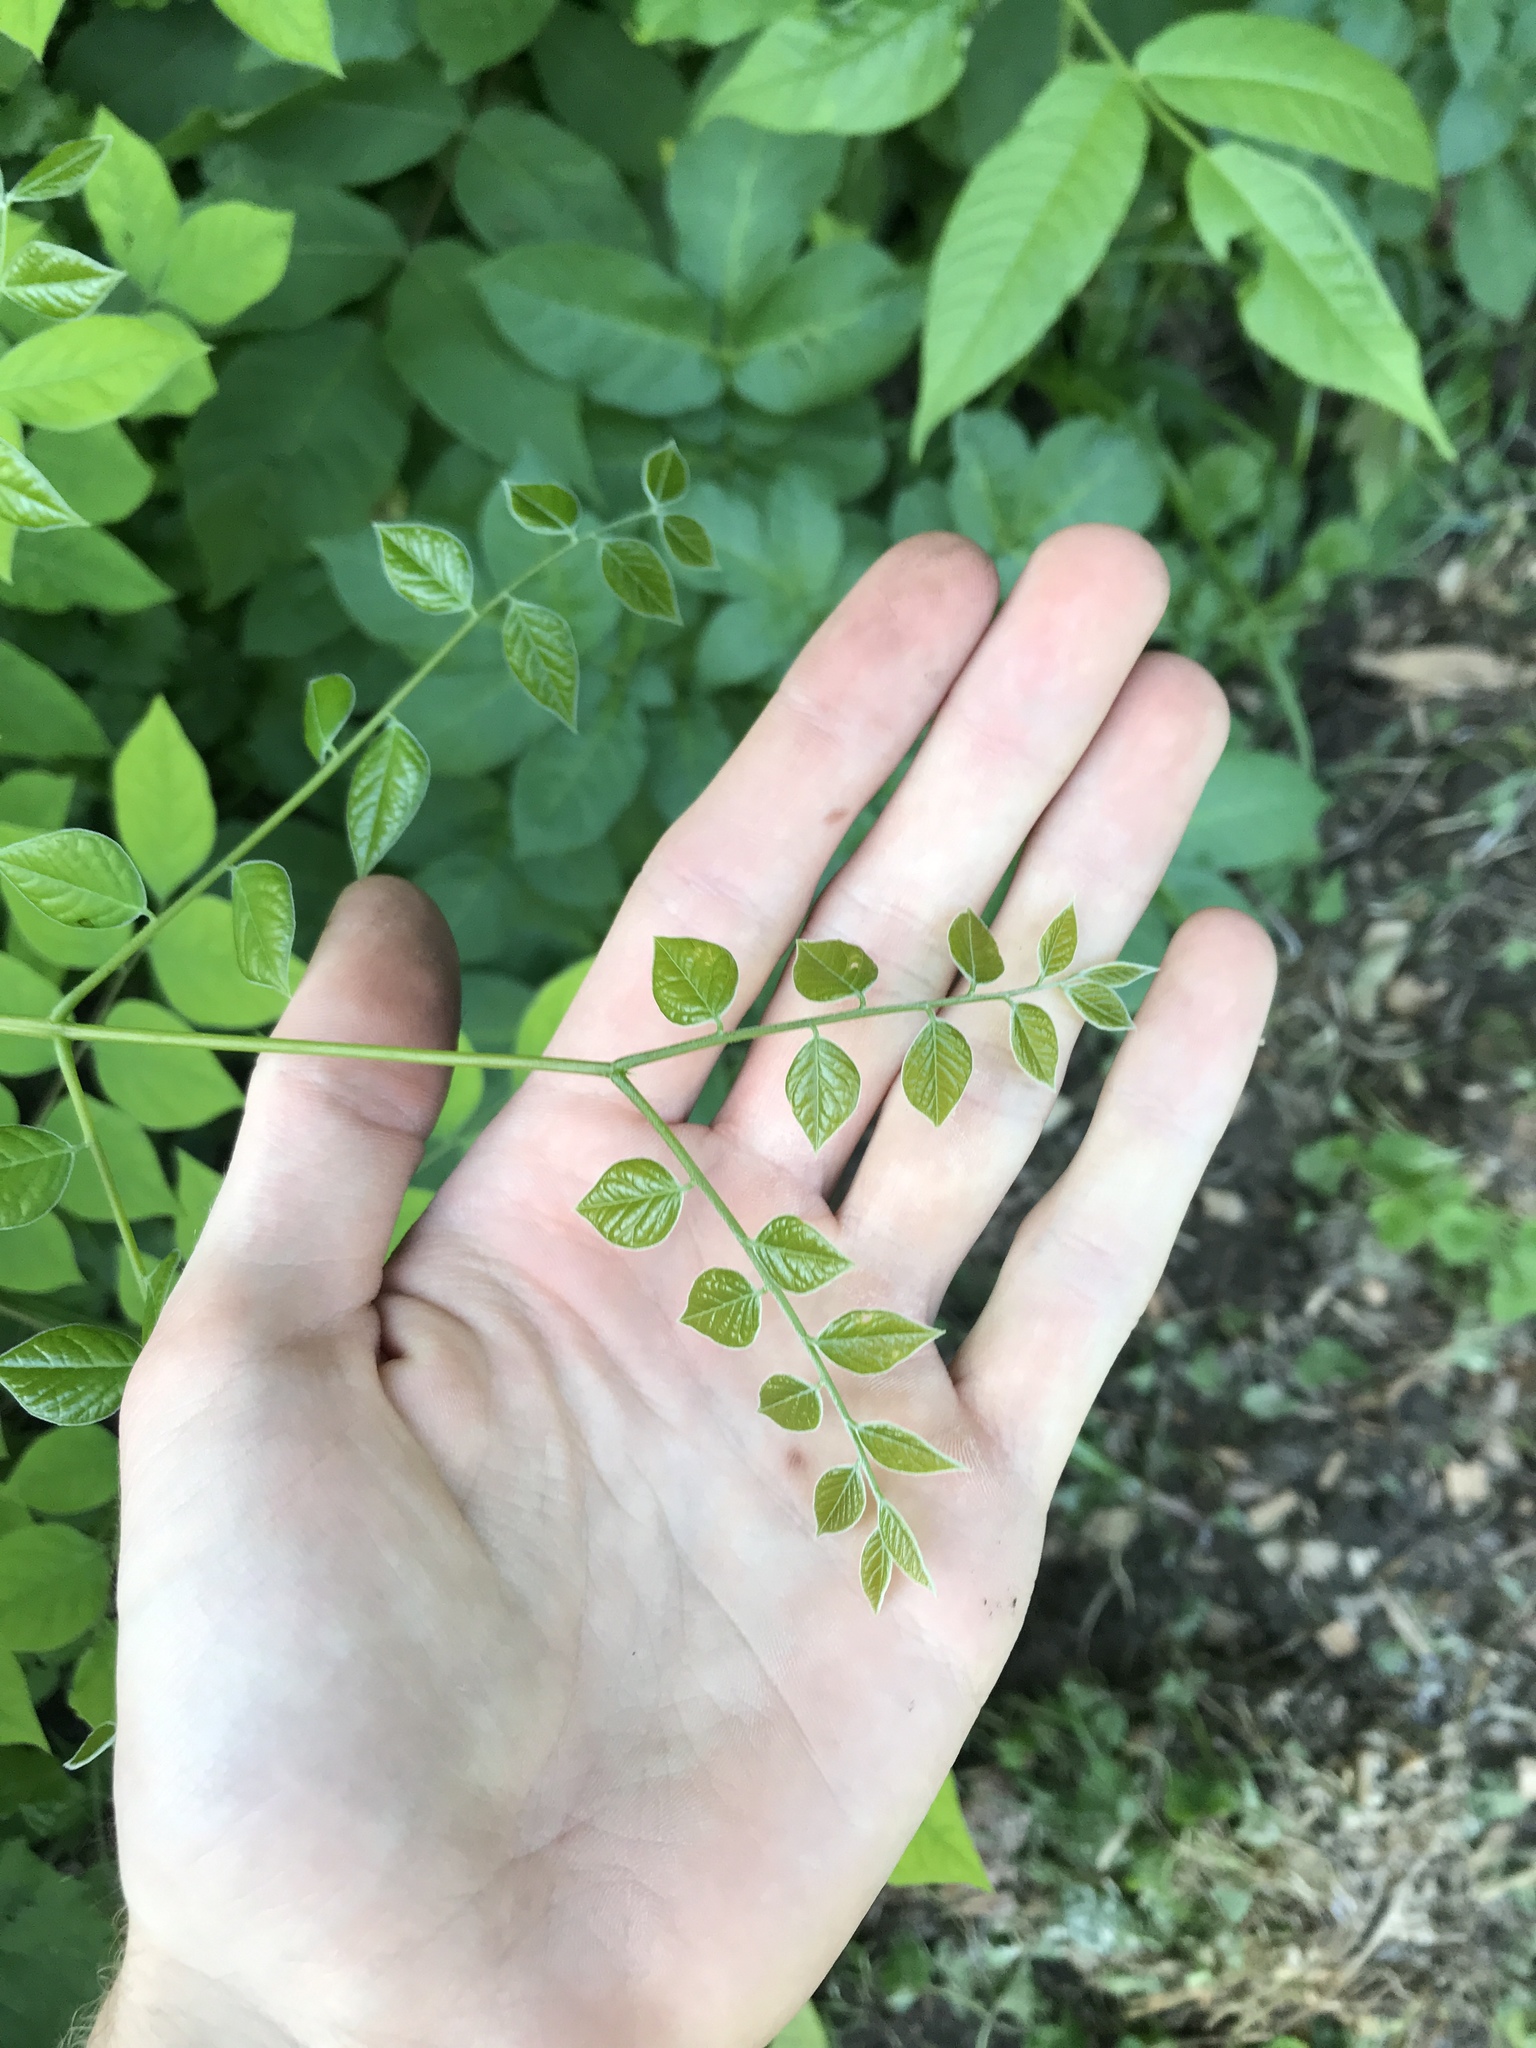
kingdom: Plantae
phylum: Tracheophyta
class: Magnoliopsida
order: Fabales
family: Fabaceae
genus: Gymnocladus
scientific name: Gymnocladus dioicus
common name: Kentucky coffee-tree
